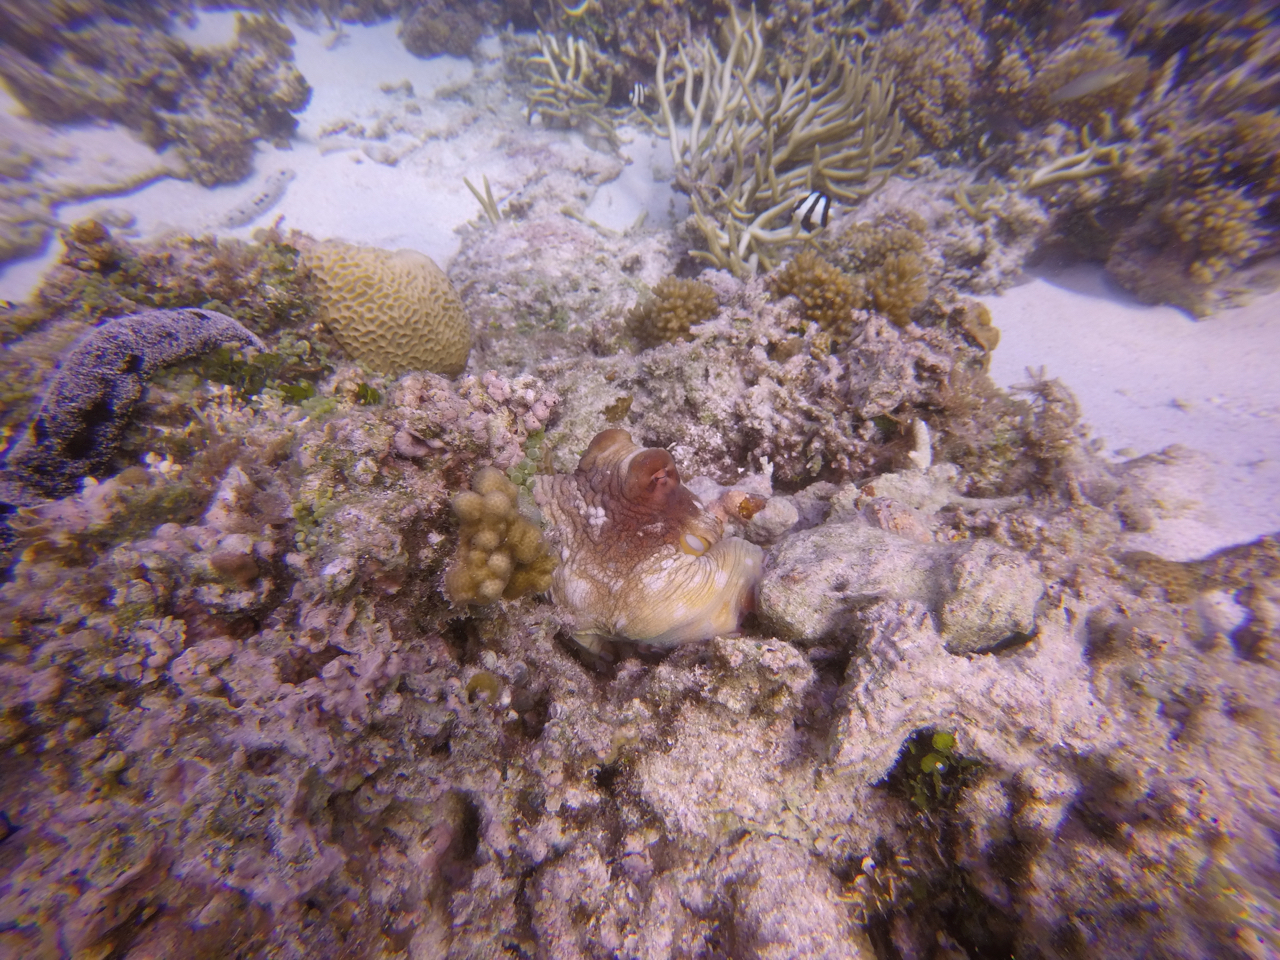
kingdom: Animalia
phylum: Mollusca
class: Cephalopoda
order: Octopoda
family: Octopodidae
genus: Octopus
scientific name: Octopus cyanea
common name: Cyane's octopus
